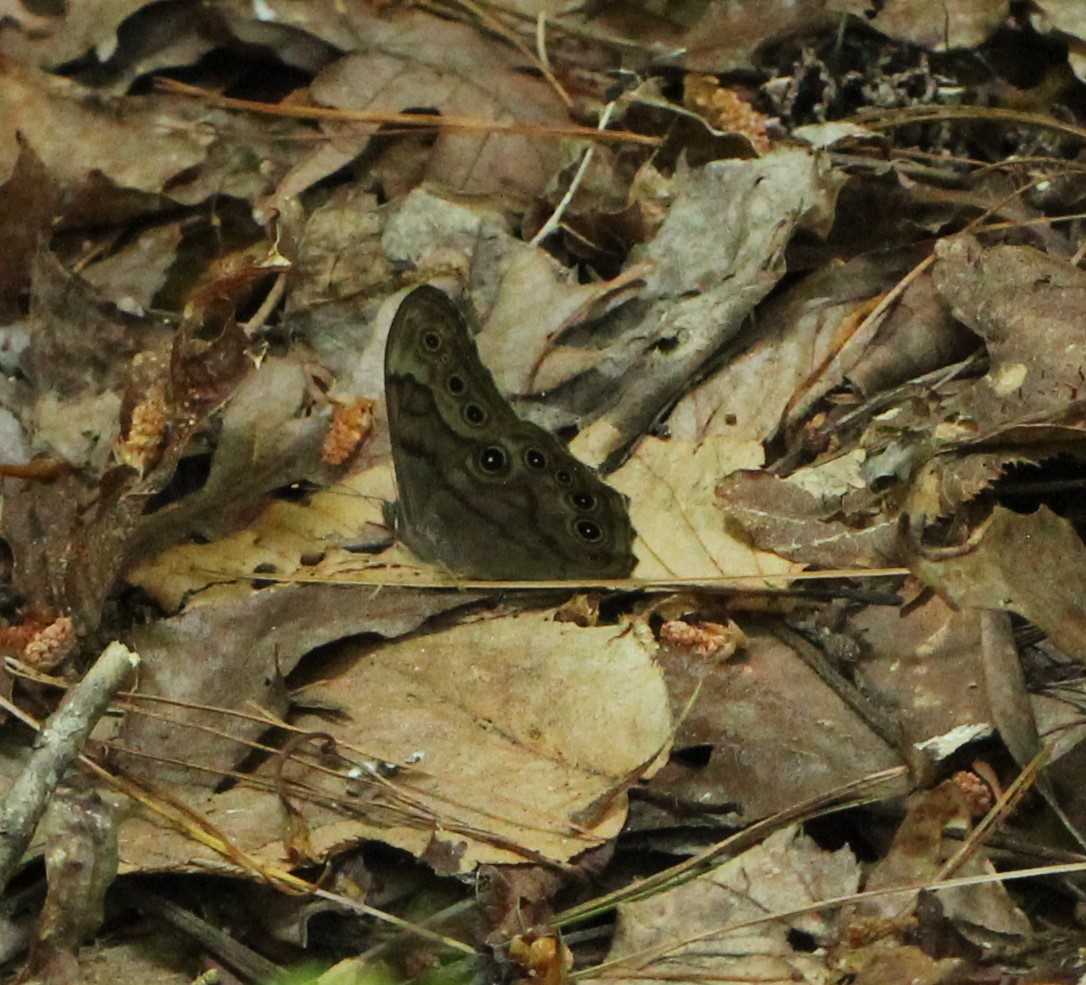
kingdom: Animalia
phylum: Arthropoda
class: Insecta
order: Lepidoptera
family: Nymphalidae
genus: Lethe
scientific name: Lethe creola
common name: Creole pearly-eye
